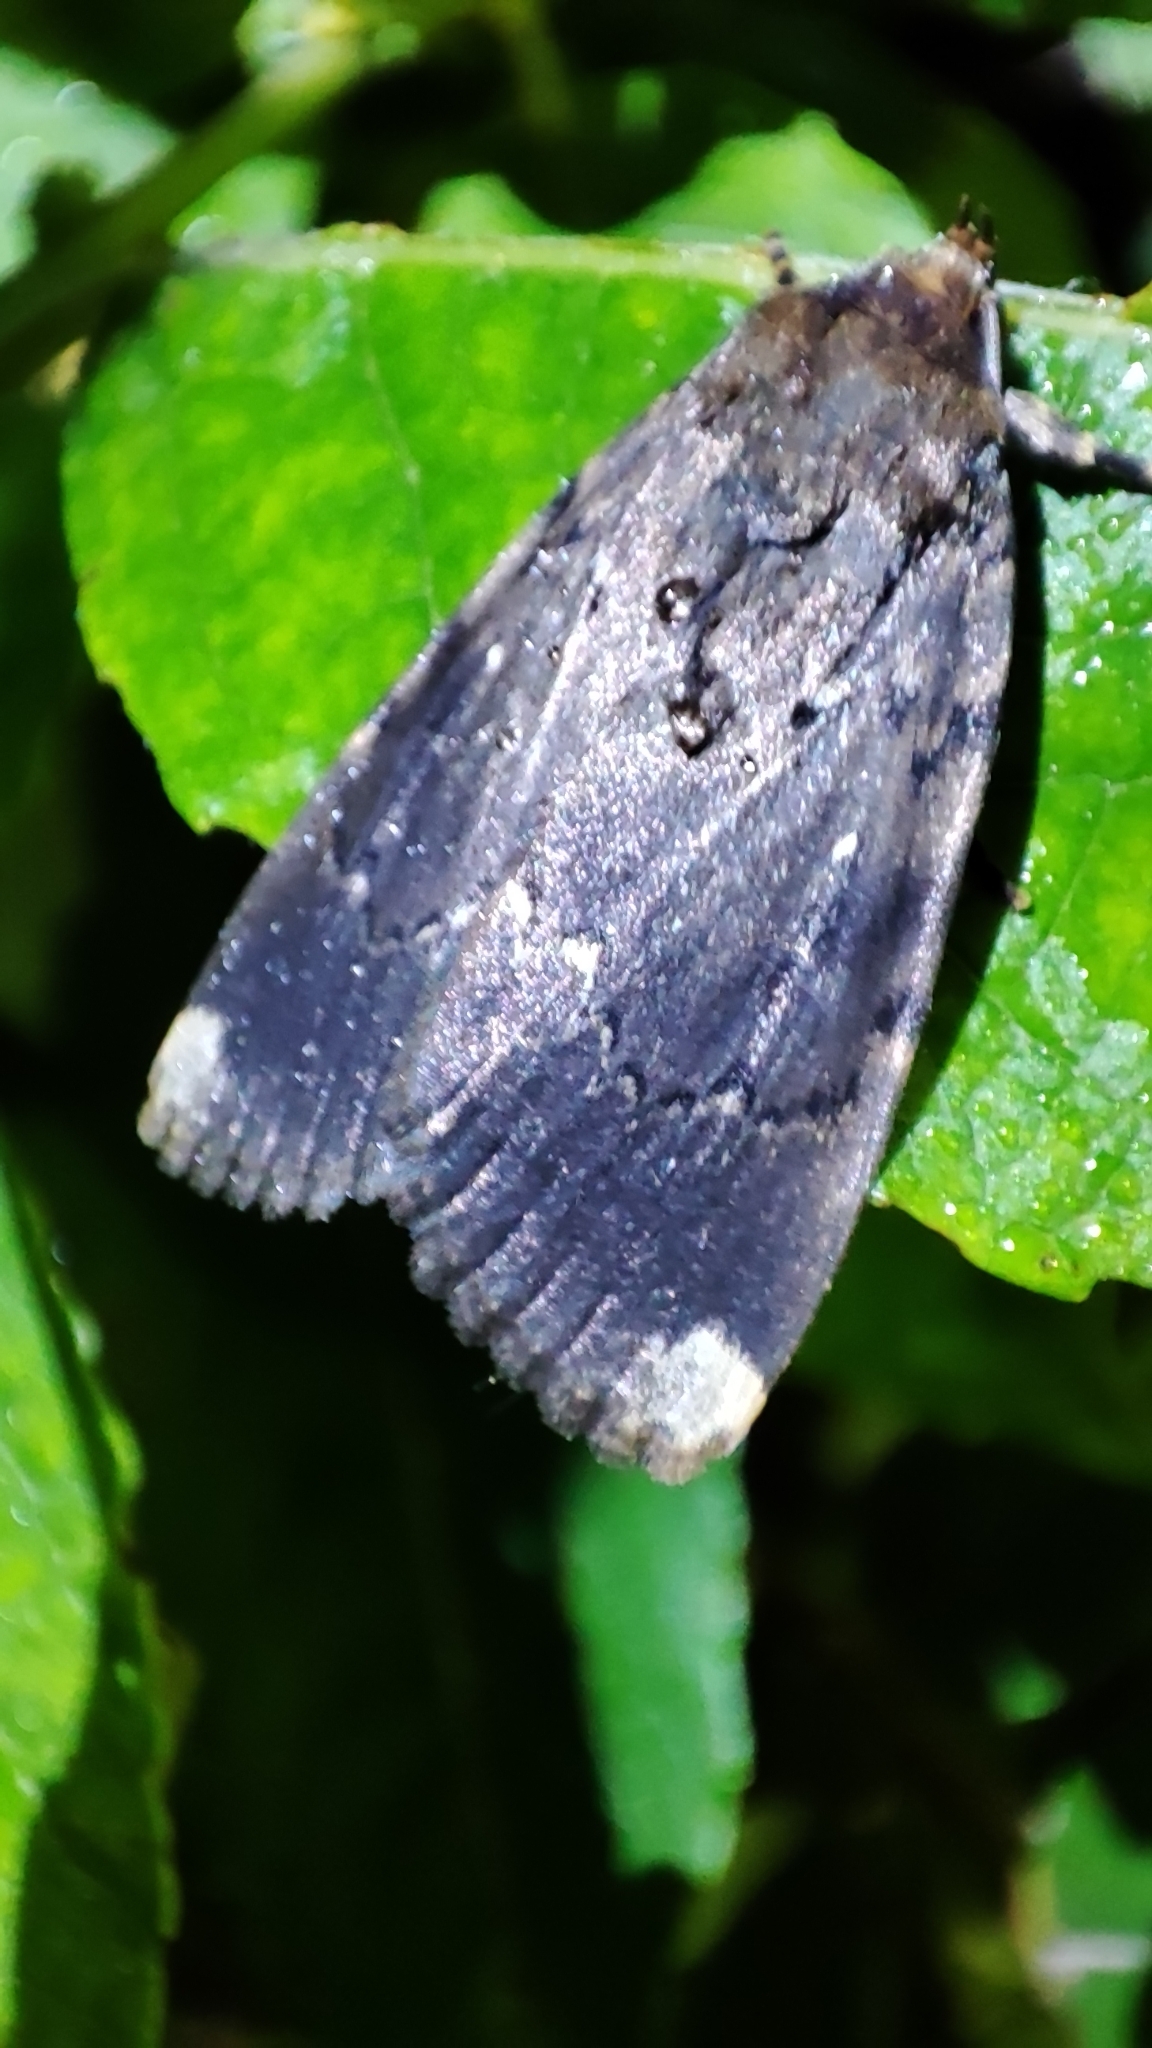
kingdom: Animalia
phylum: Arthropoda
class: Insecta
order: Lepidoptera
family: Noctuidae
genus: Amphipyra
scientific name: Amphipyra schrenckii
